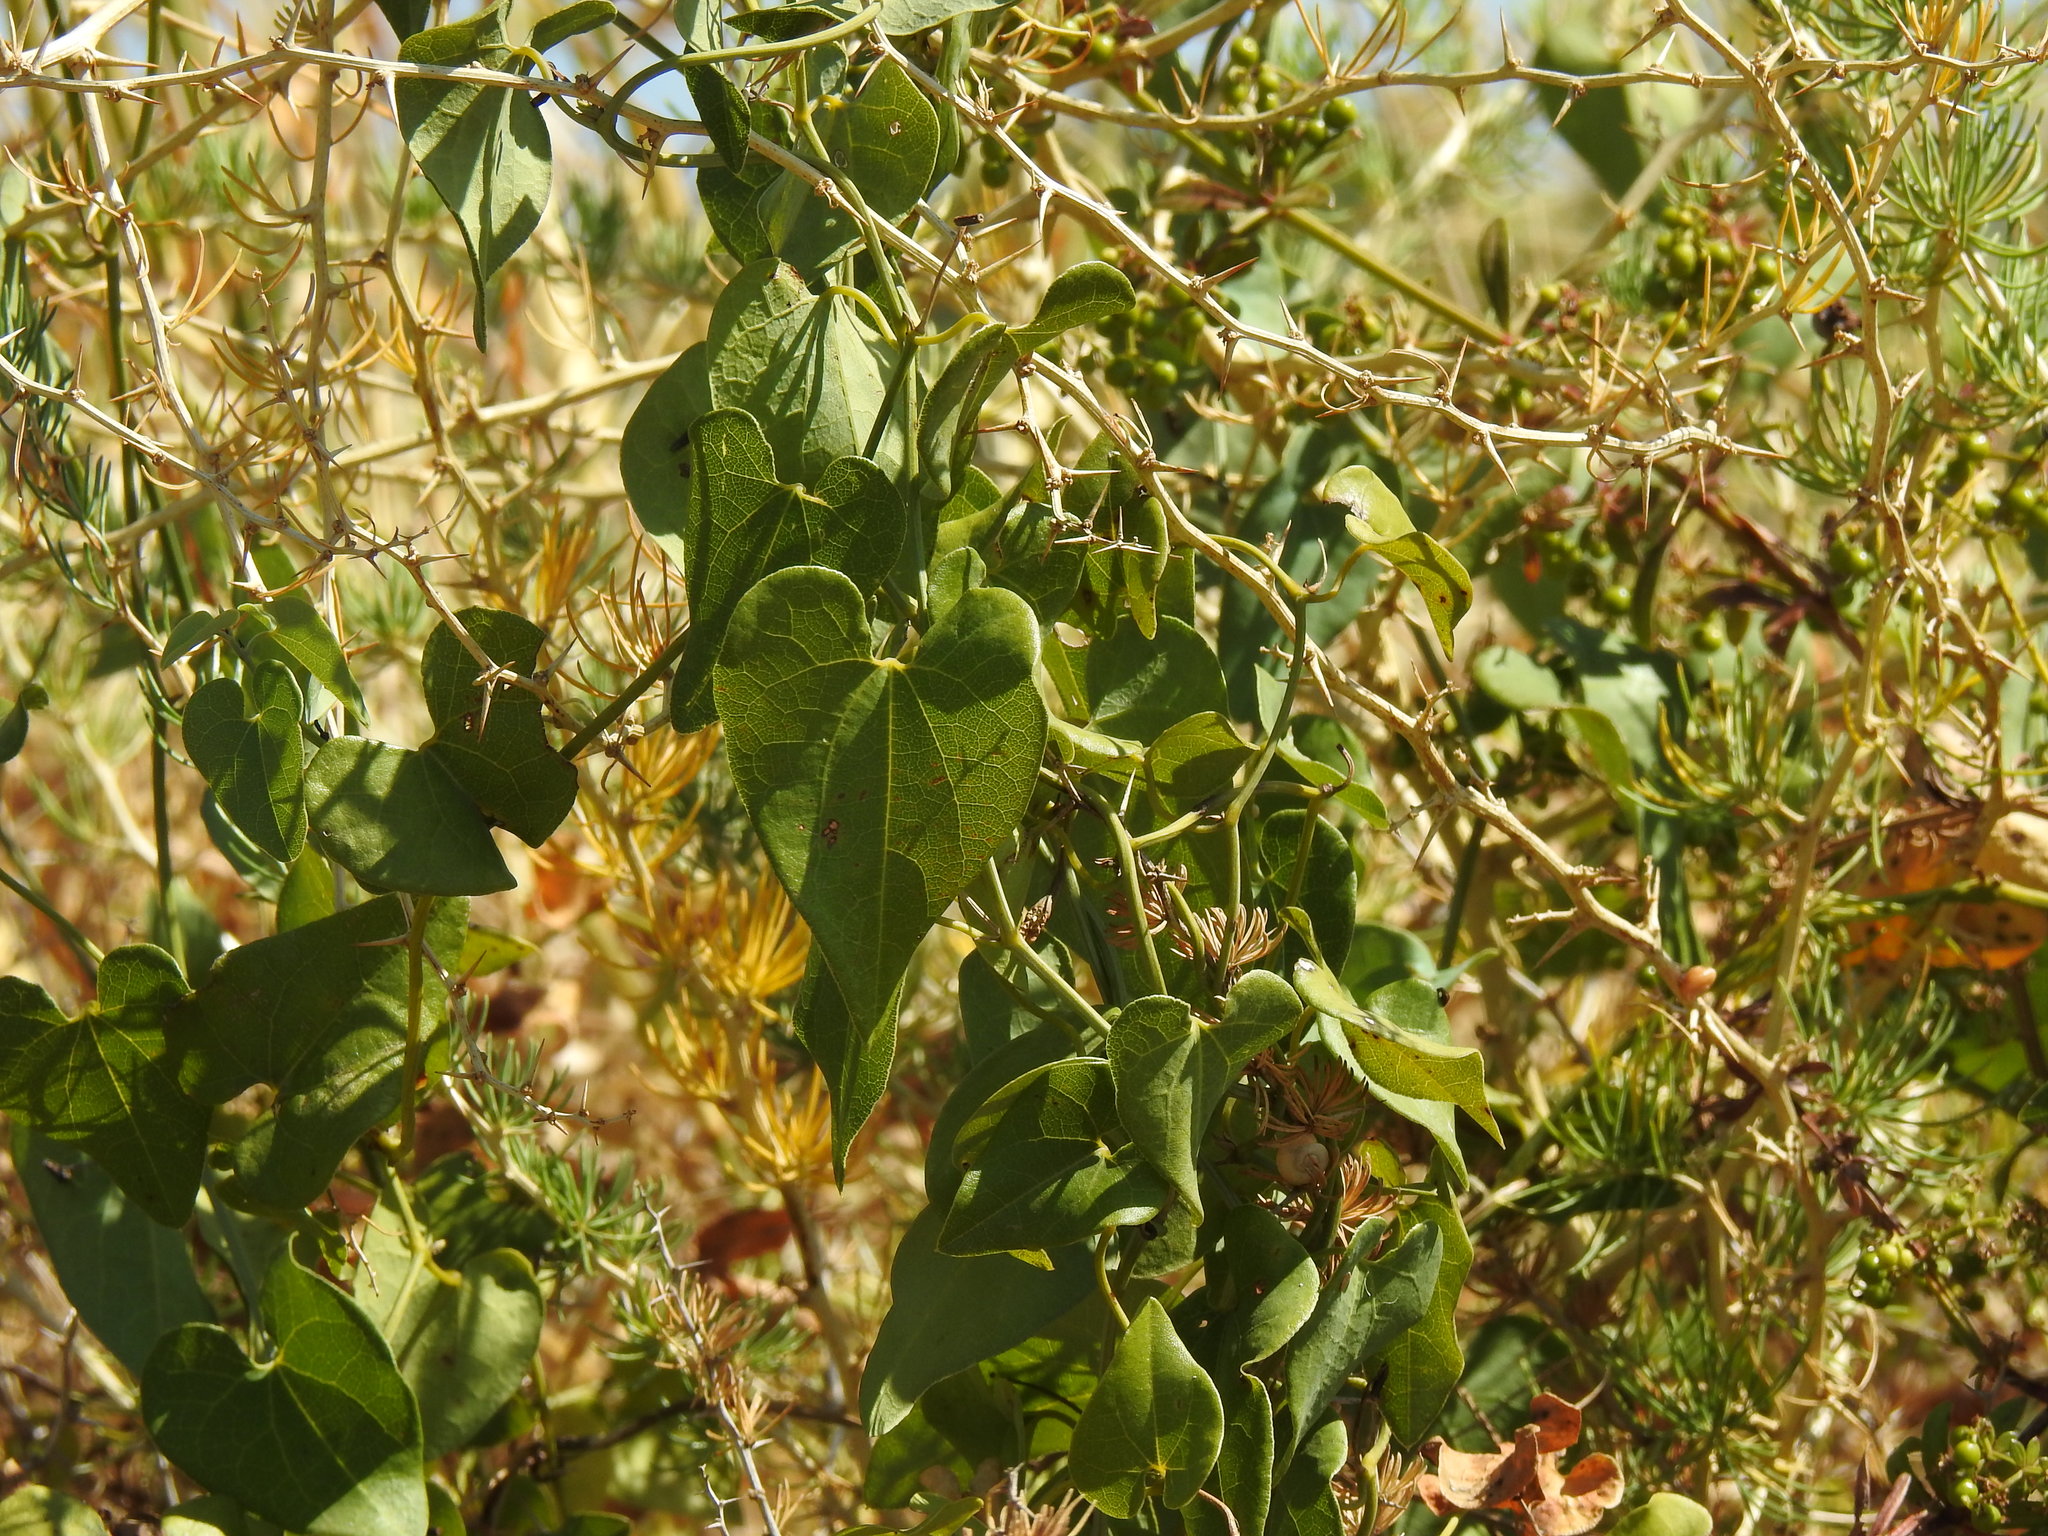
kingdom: Plantae
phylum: Tracheophyta
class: Magnoliopsida
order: Piperales
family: Aristolochiaceae
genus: Aristolochia
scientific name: Aristolochia baetica
